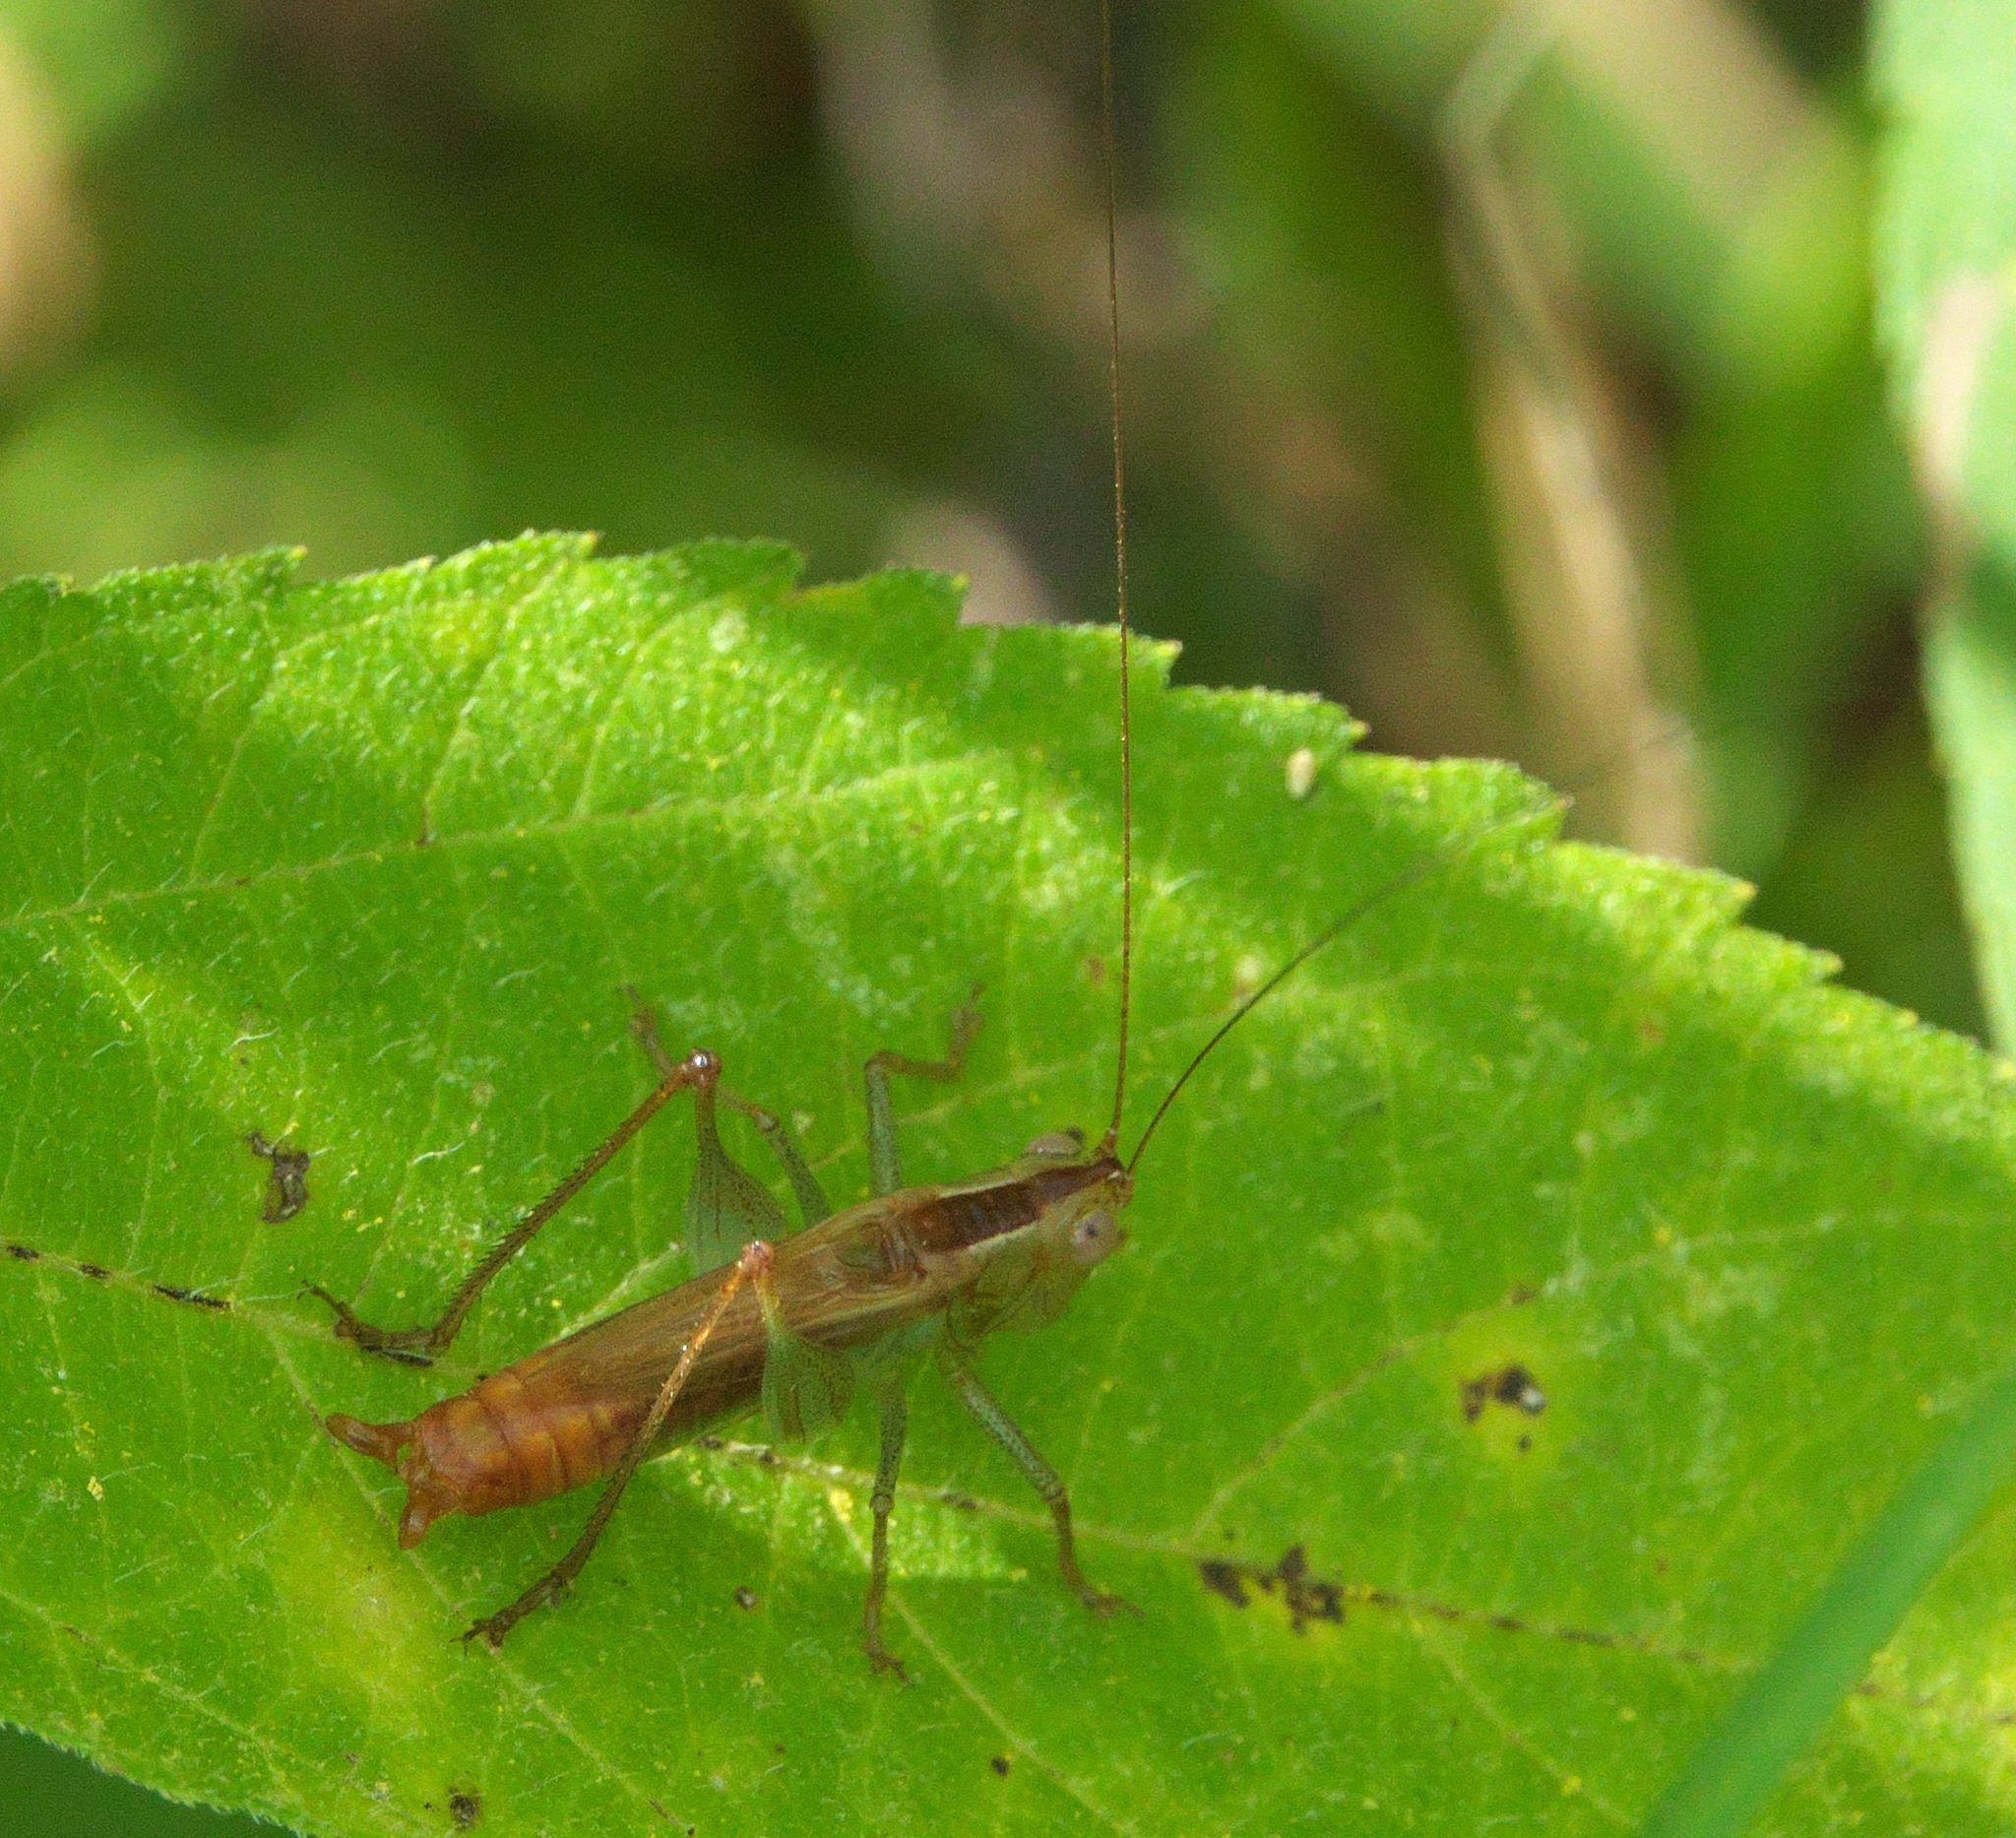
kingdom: Animalia
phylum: Arthropoda
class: Insecta
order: Orthoptera
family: Tettigoniidae
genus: Conocephalus
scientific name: Conocephalus brevipennis
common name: Short-winged meadow katydid
